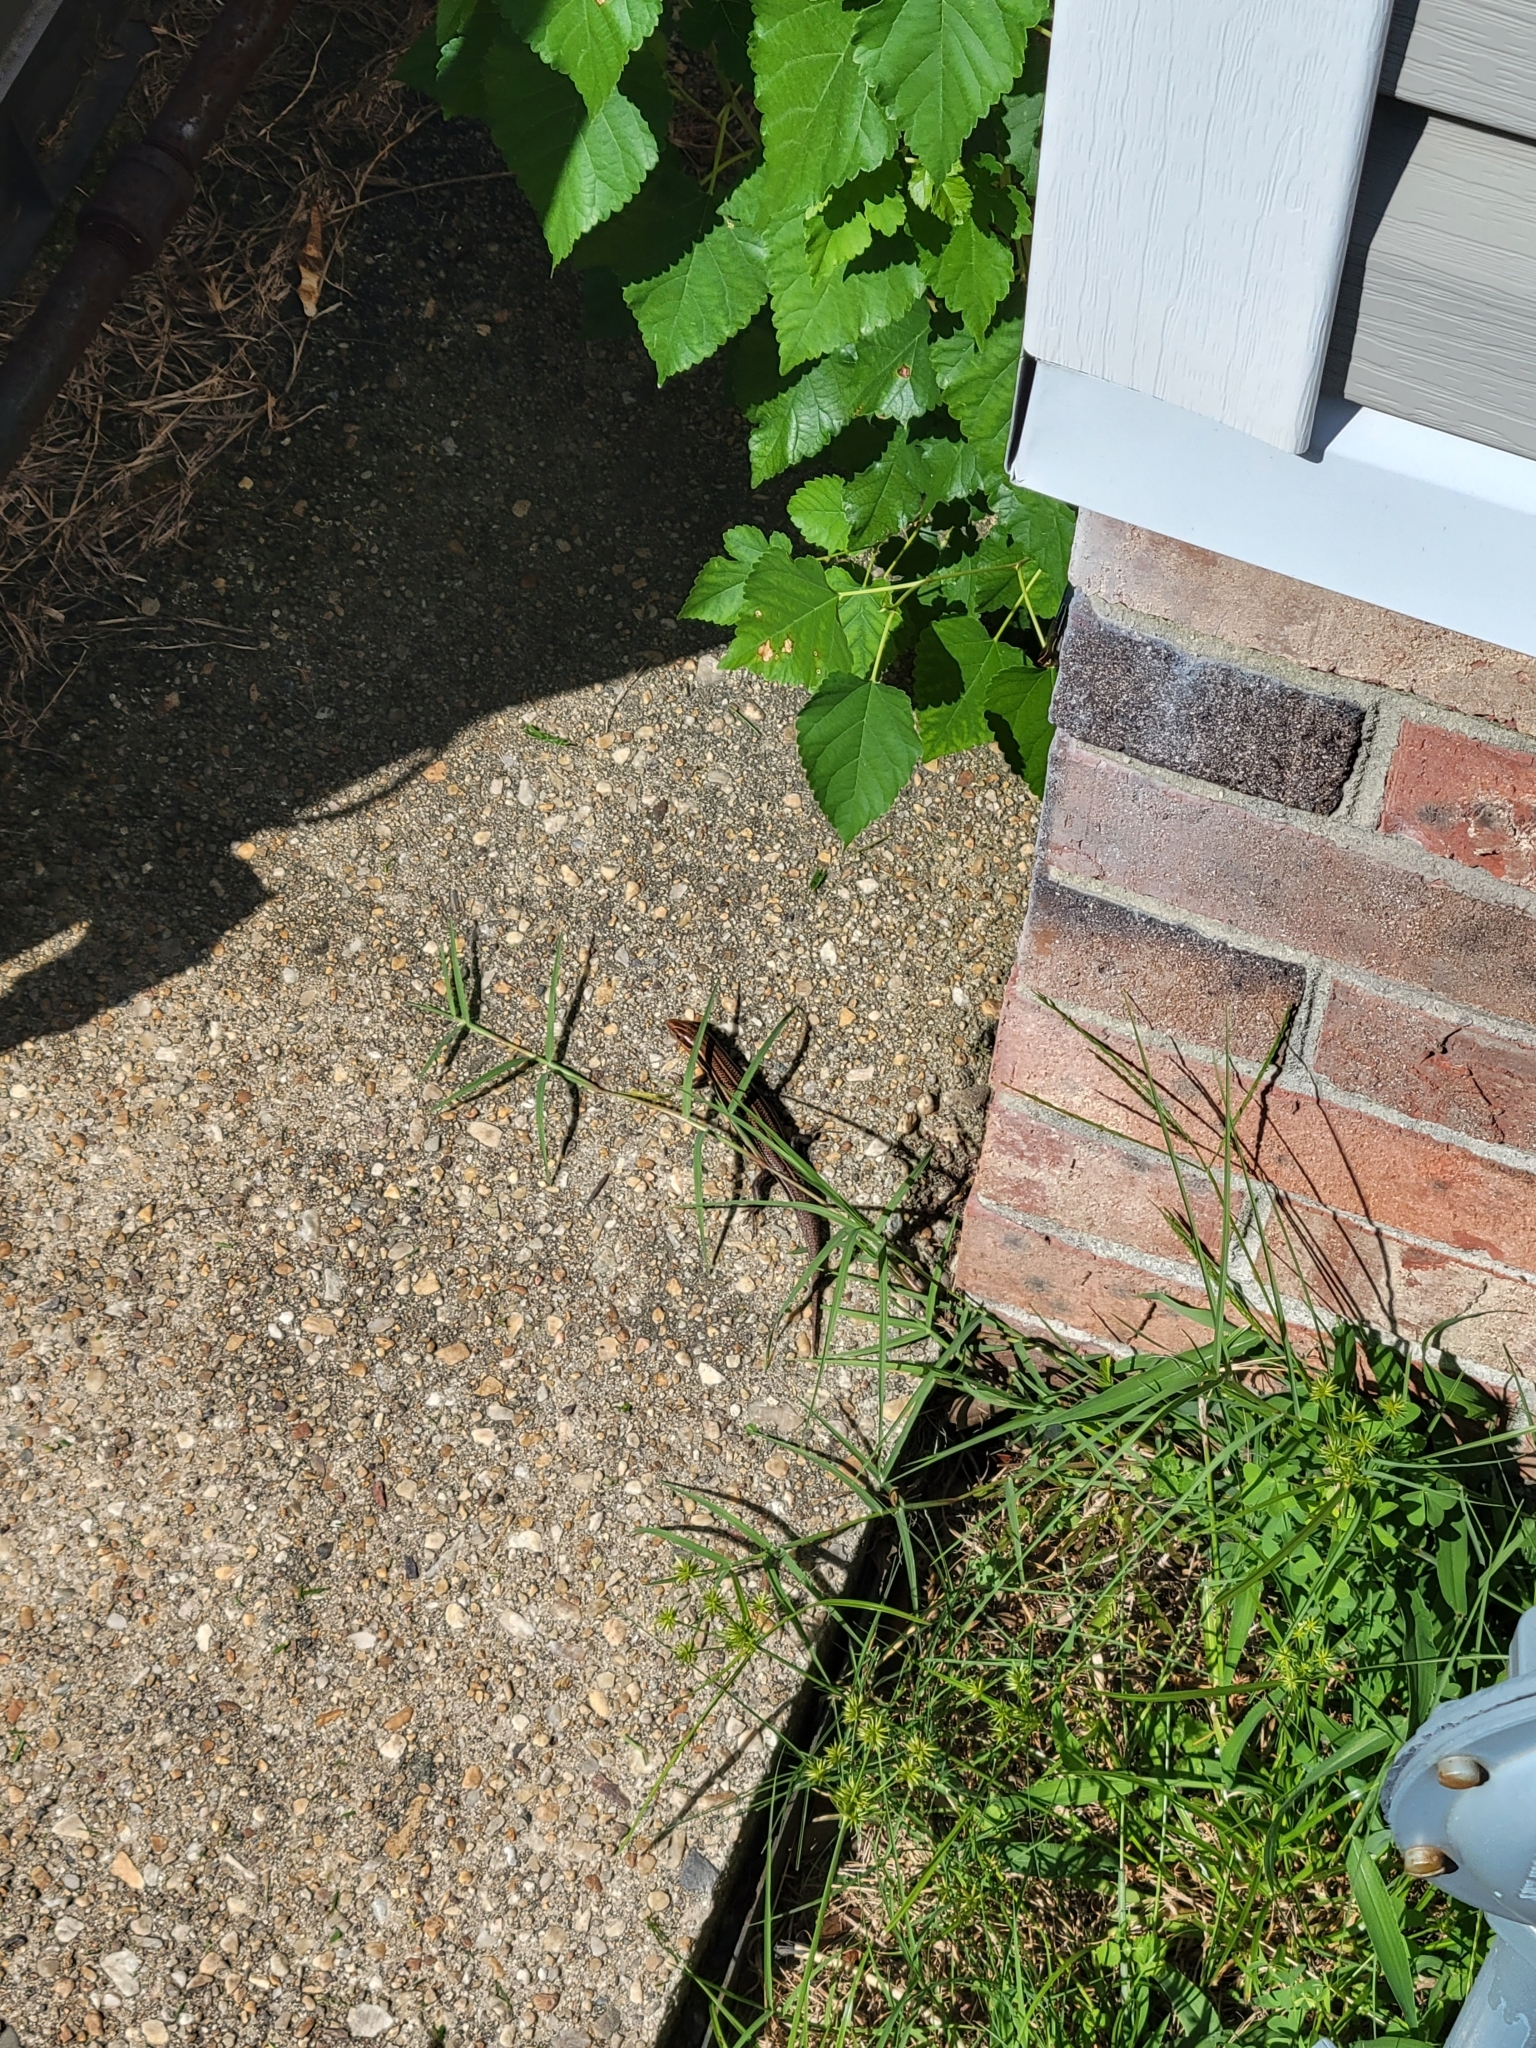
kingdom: Animalia
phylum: Chordata
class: Squamata
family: Scincidae
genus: Plestiodon
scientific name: Plestiodon inexpectatus
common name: Southeastern five-lined skink
